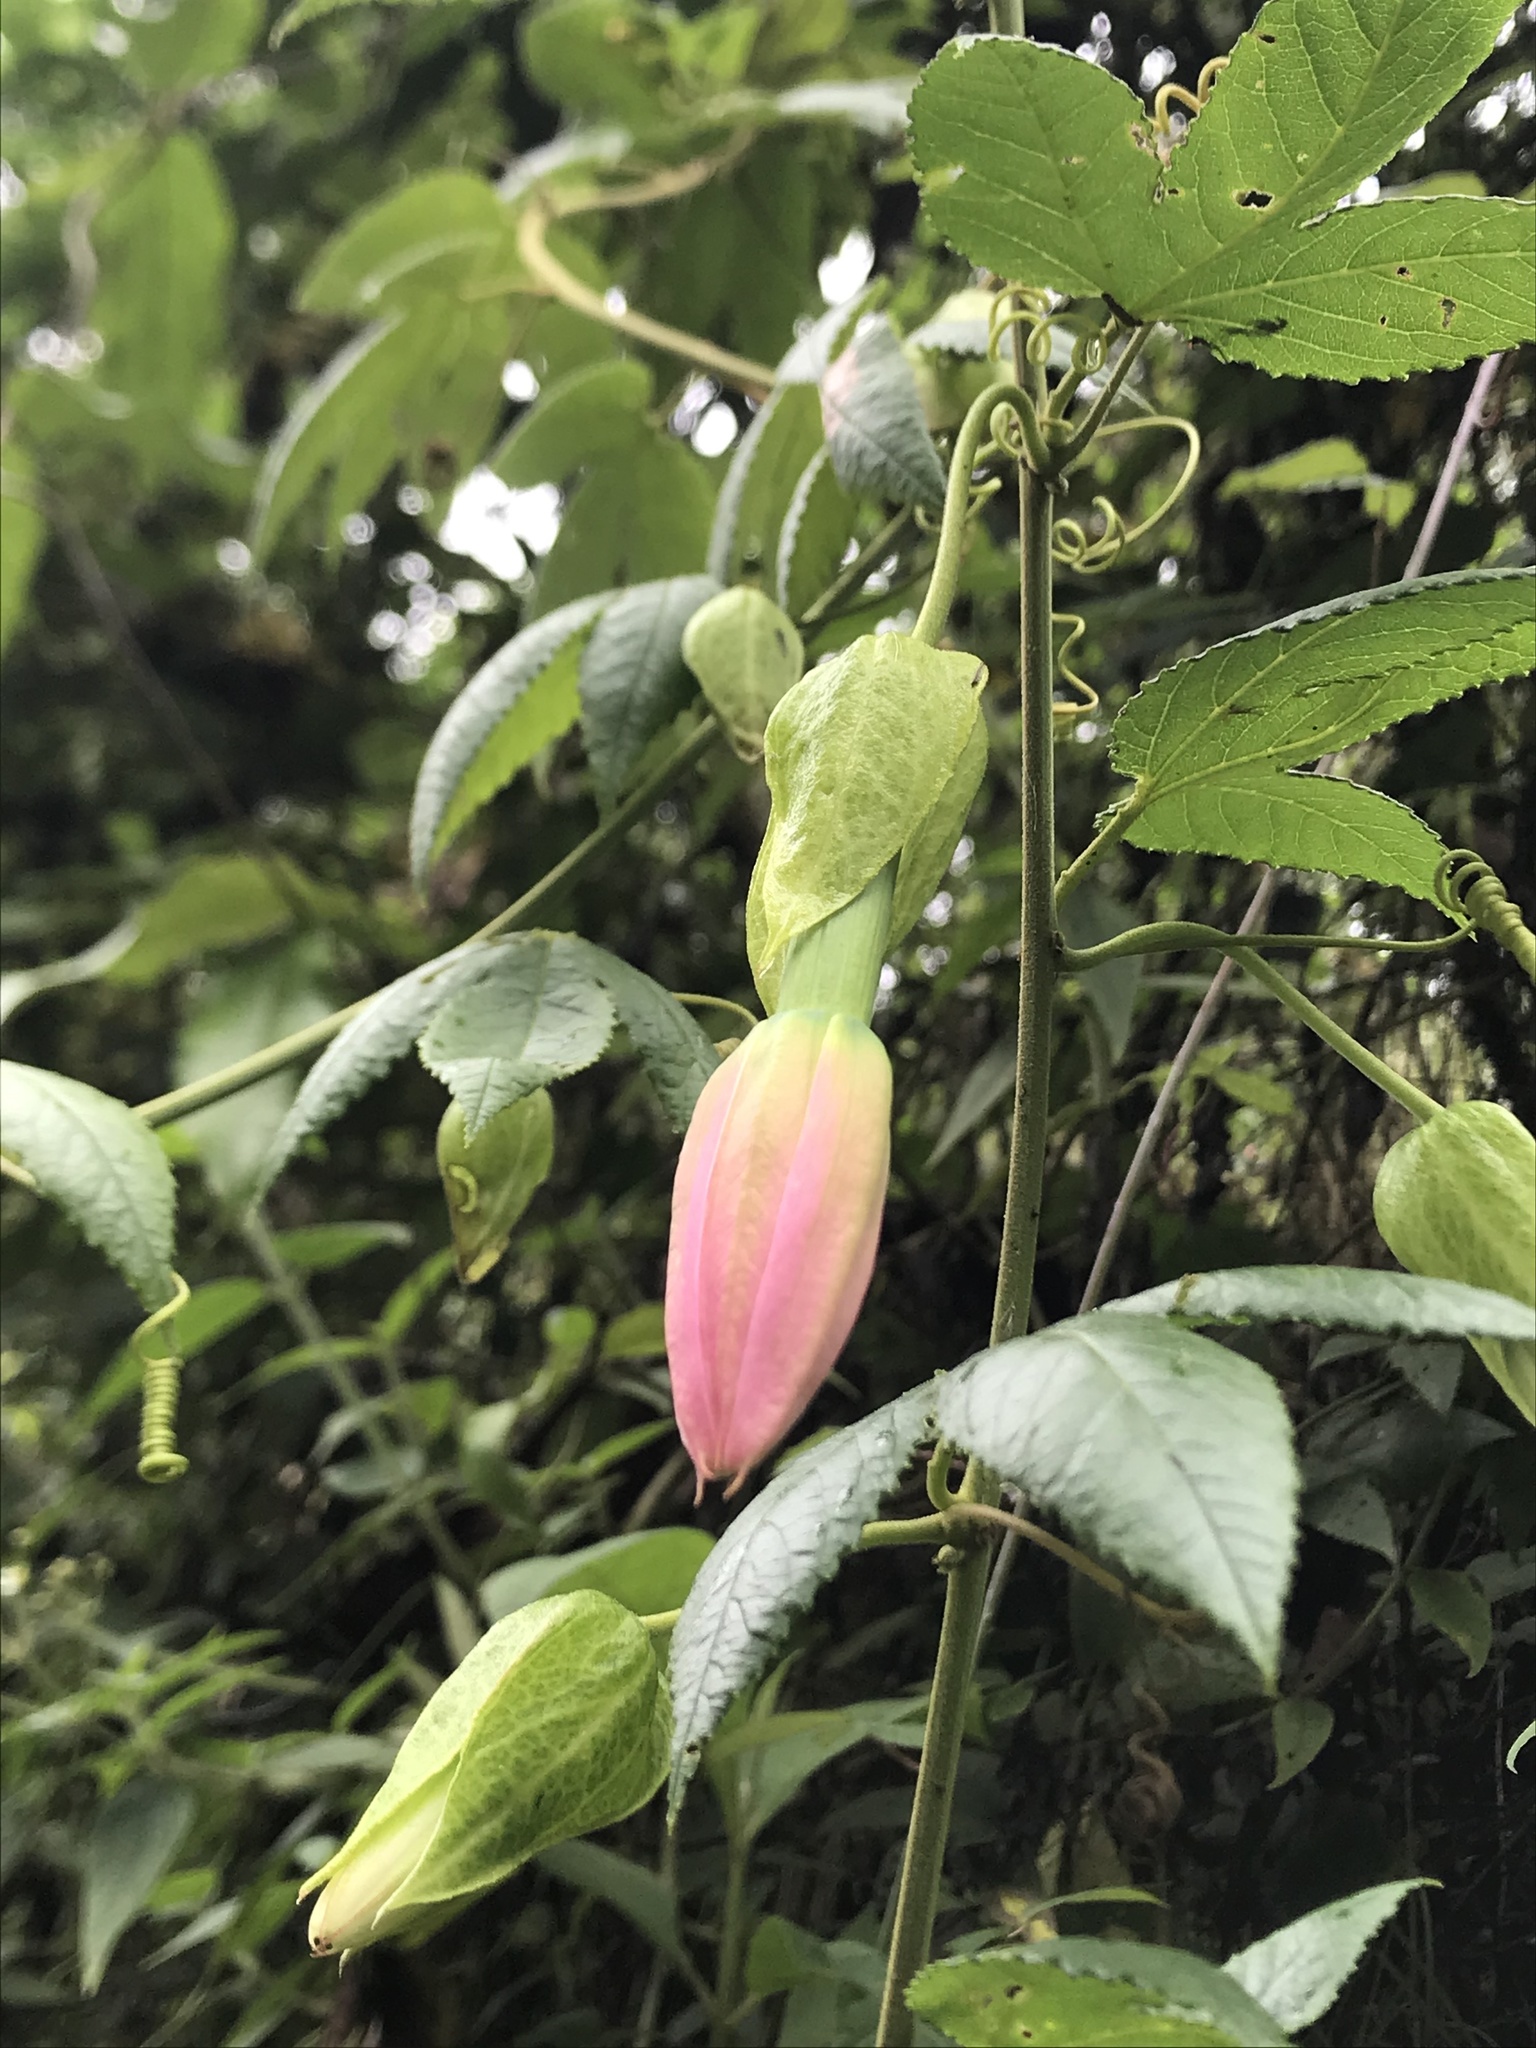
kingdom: Plantae
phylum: Tracheophyta
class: Magnoliopsida
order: Malpighiales
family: Passifloraceae
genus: Passiflora
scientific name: Passiflora tarminiana
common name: Banana poka
